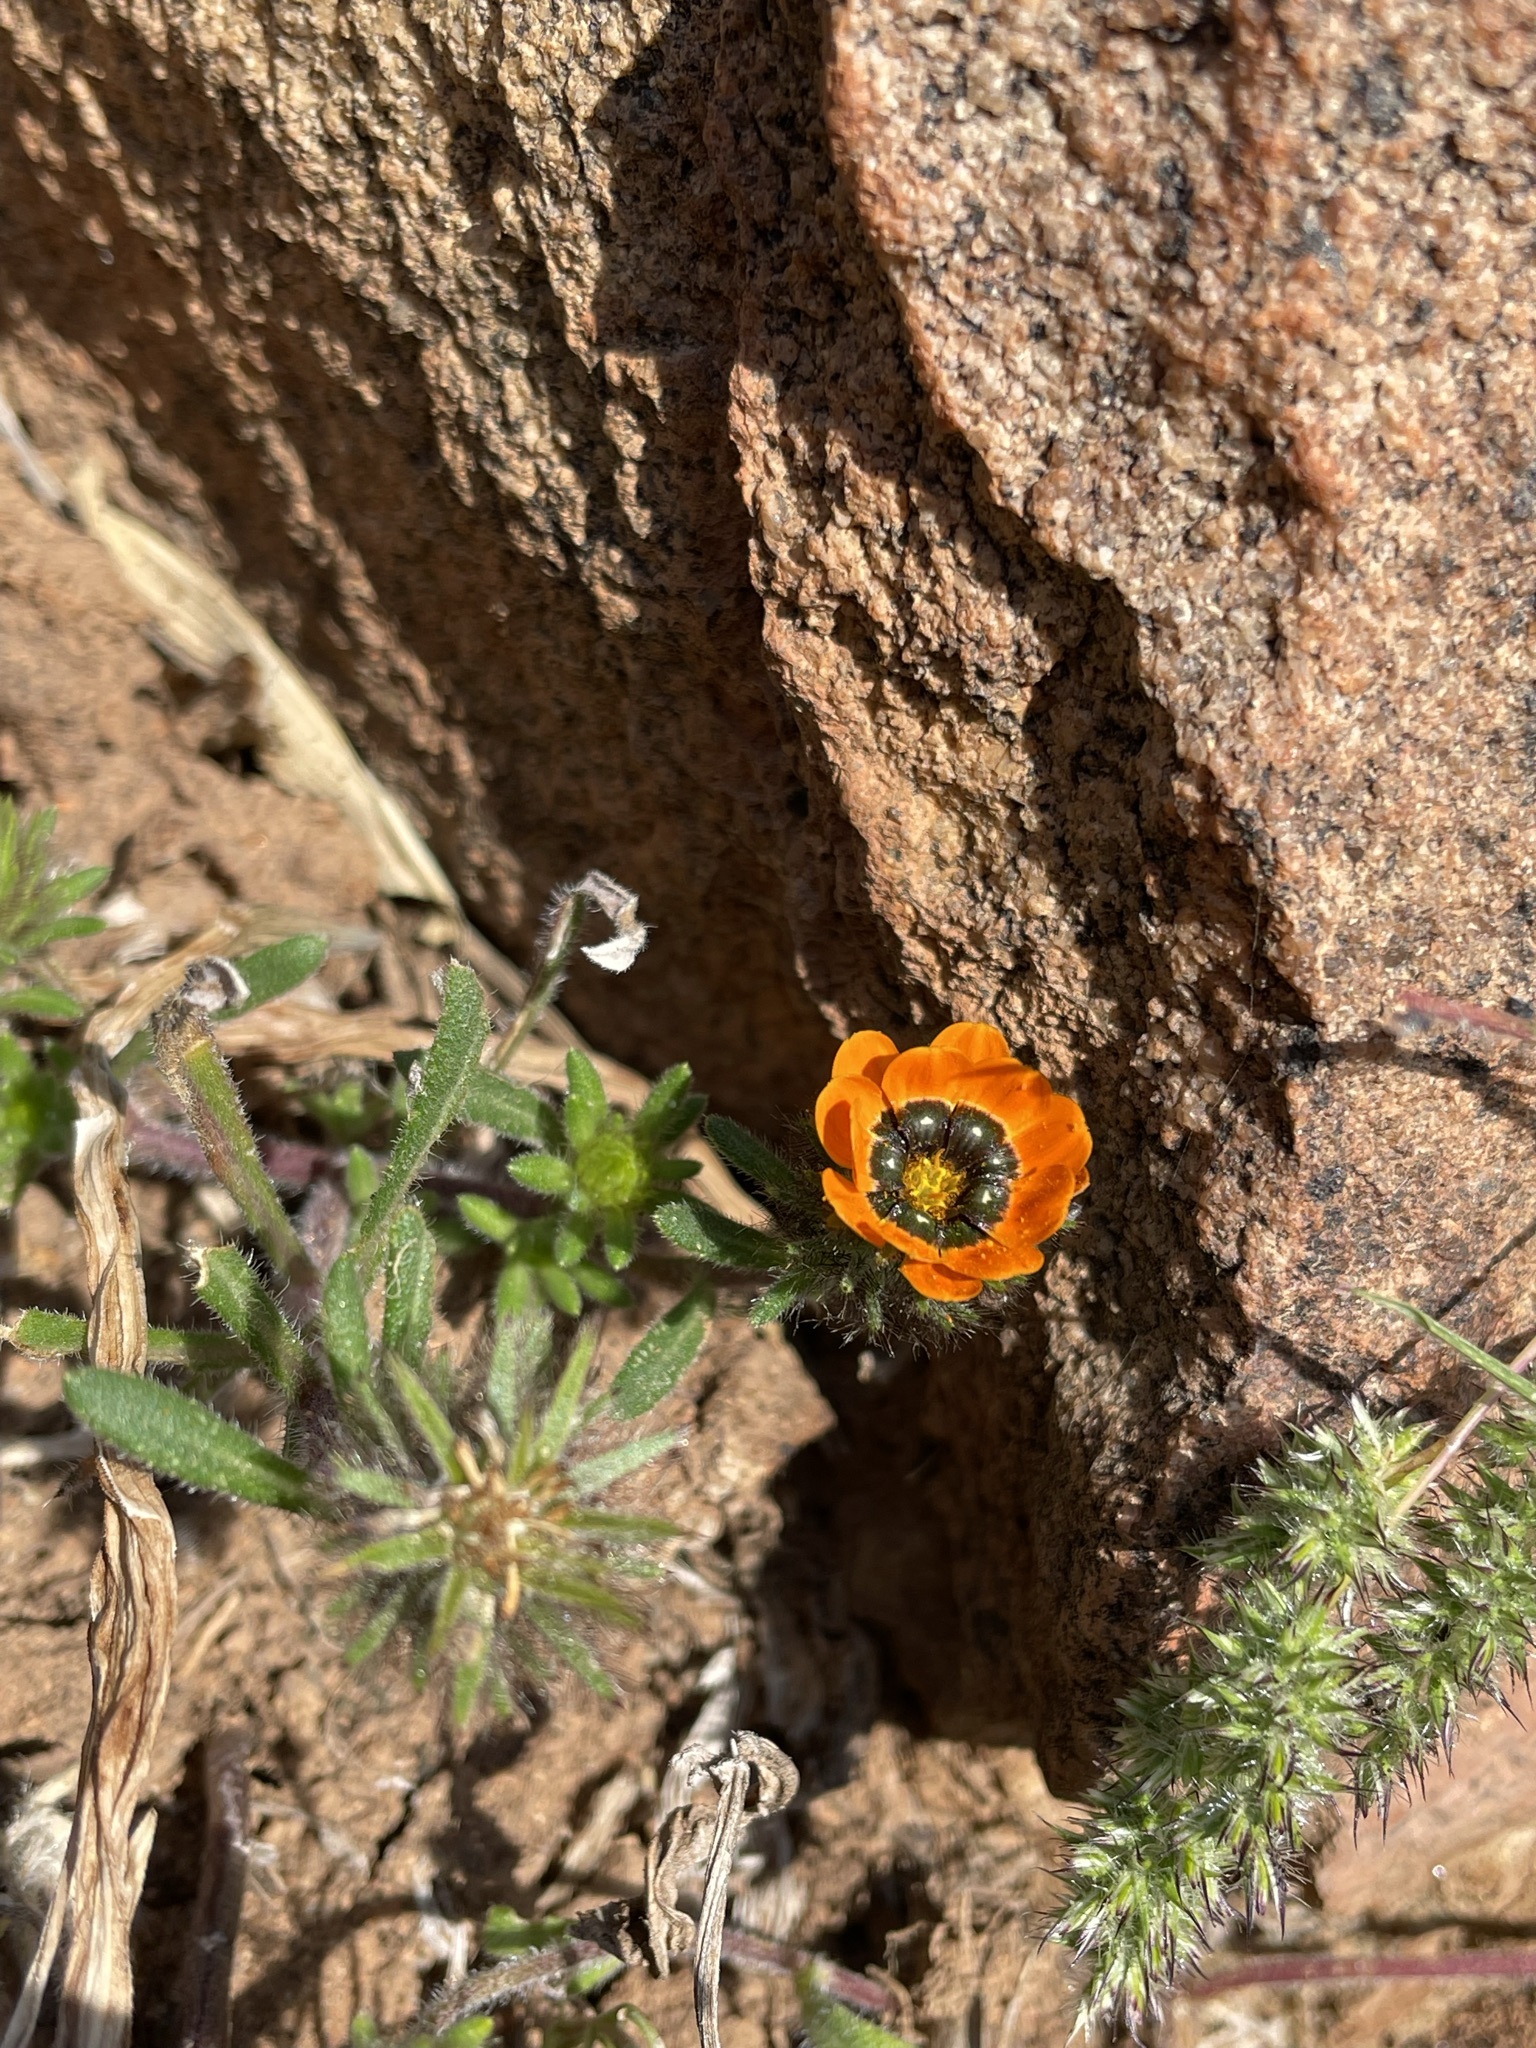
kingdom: Plantae
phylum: Tracheophyta
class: Magnoliopsida
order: Asterales
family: Asteraceae
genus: Gorteria
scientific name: Gorteria diffusa
